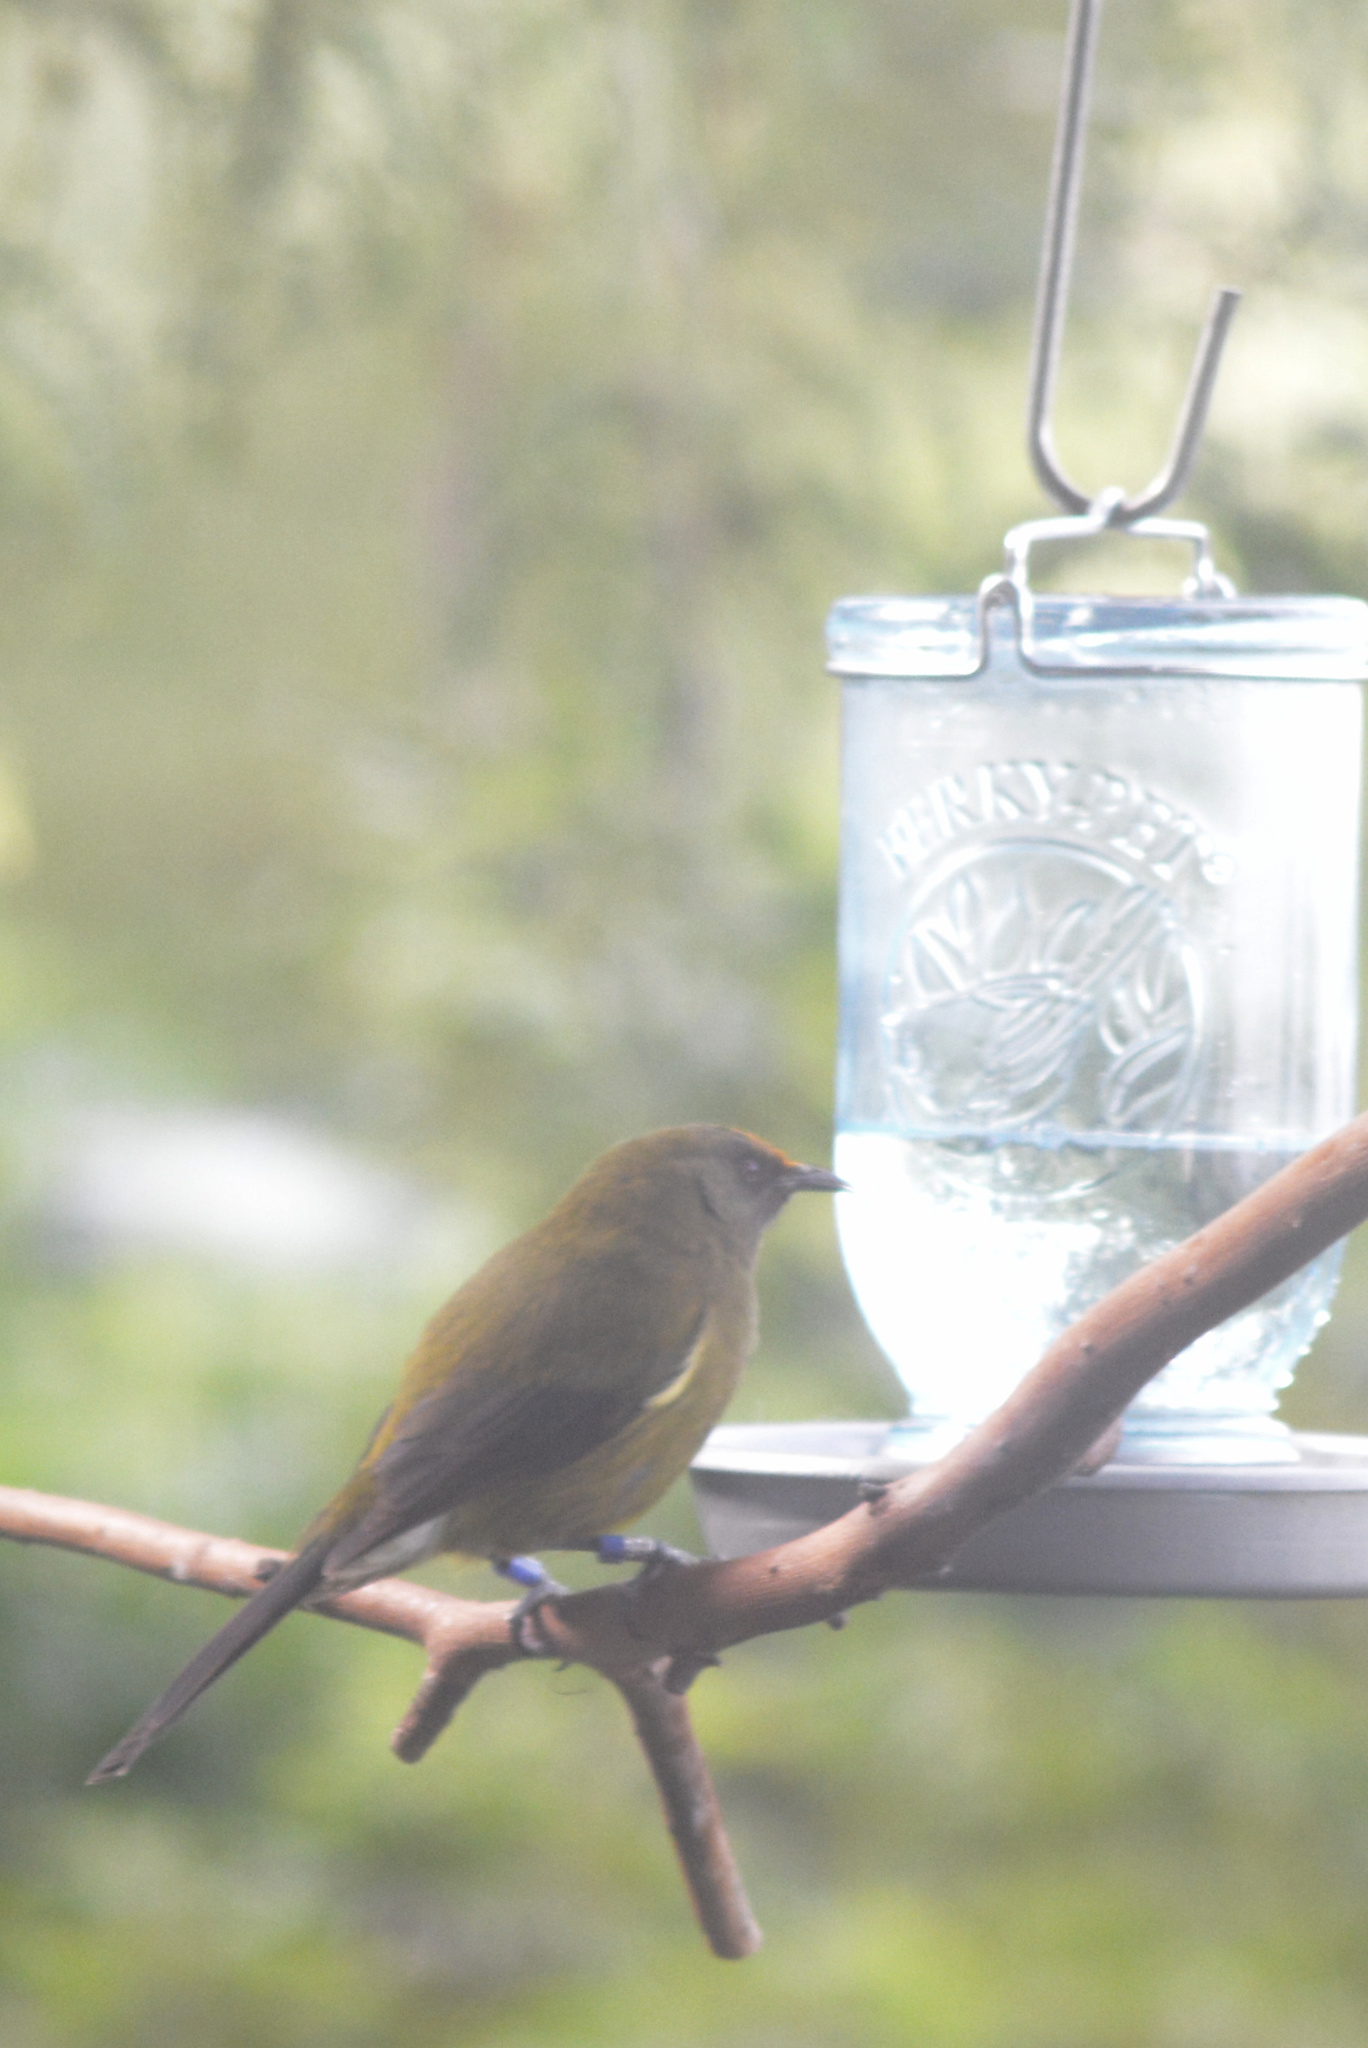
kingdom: Animalia
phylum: Chordata
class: Aves
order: Passeriformes
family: Meliphagidae
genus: Anthornis
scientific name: Anthornis melanura
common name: New zealand bellbird
